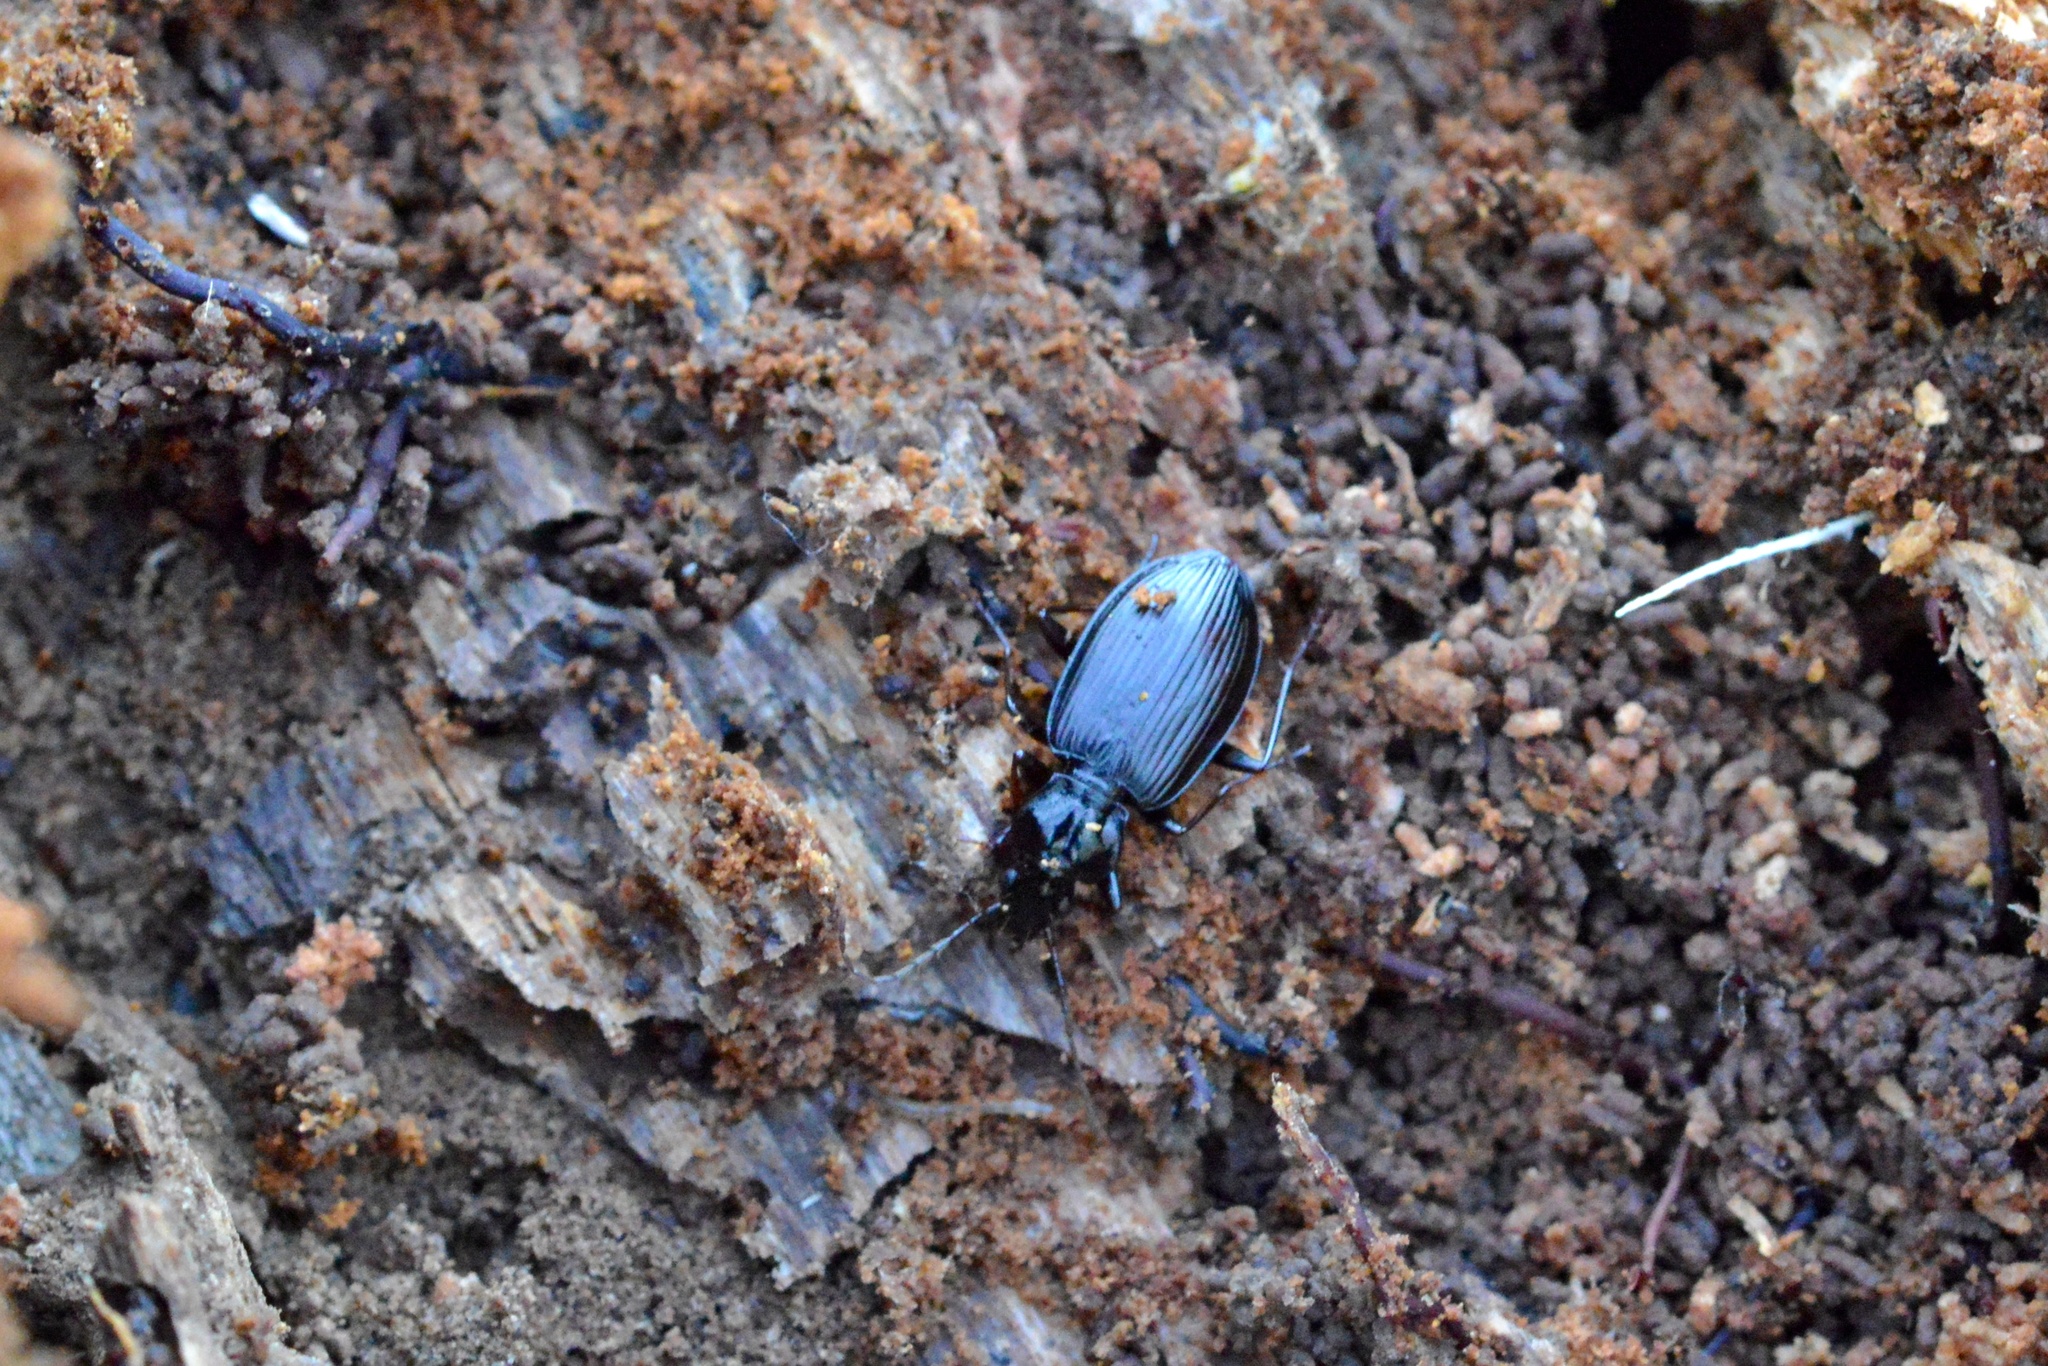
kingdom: Animalia
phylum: Arthropoda
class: Insecta
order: Coleoptera
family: Carabidae
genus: Platynus
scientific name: Platynus assimilis
